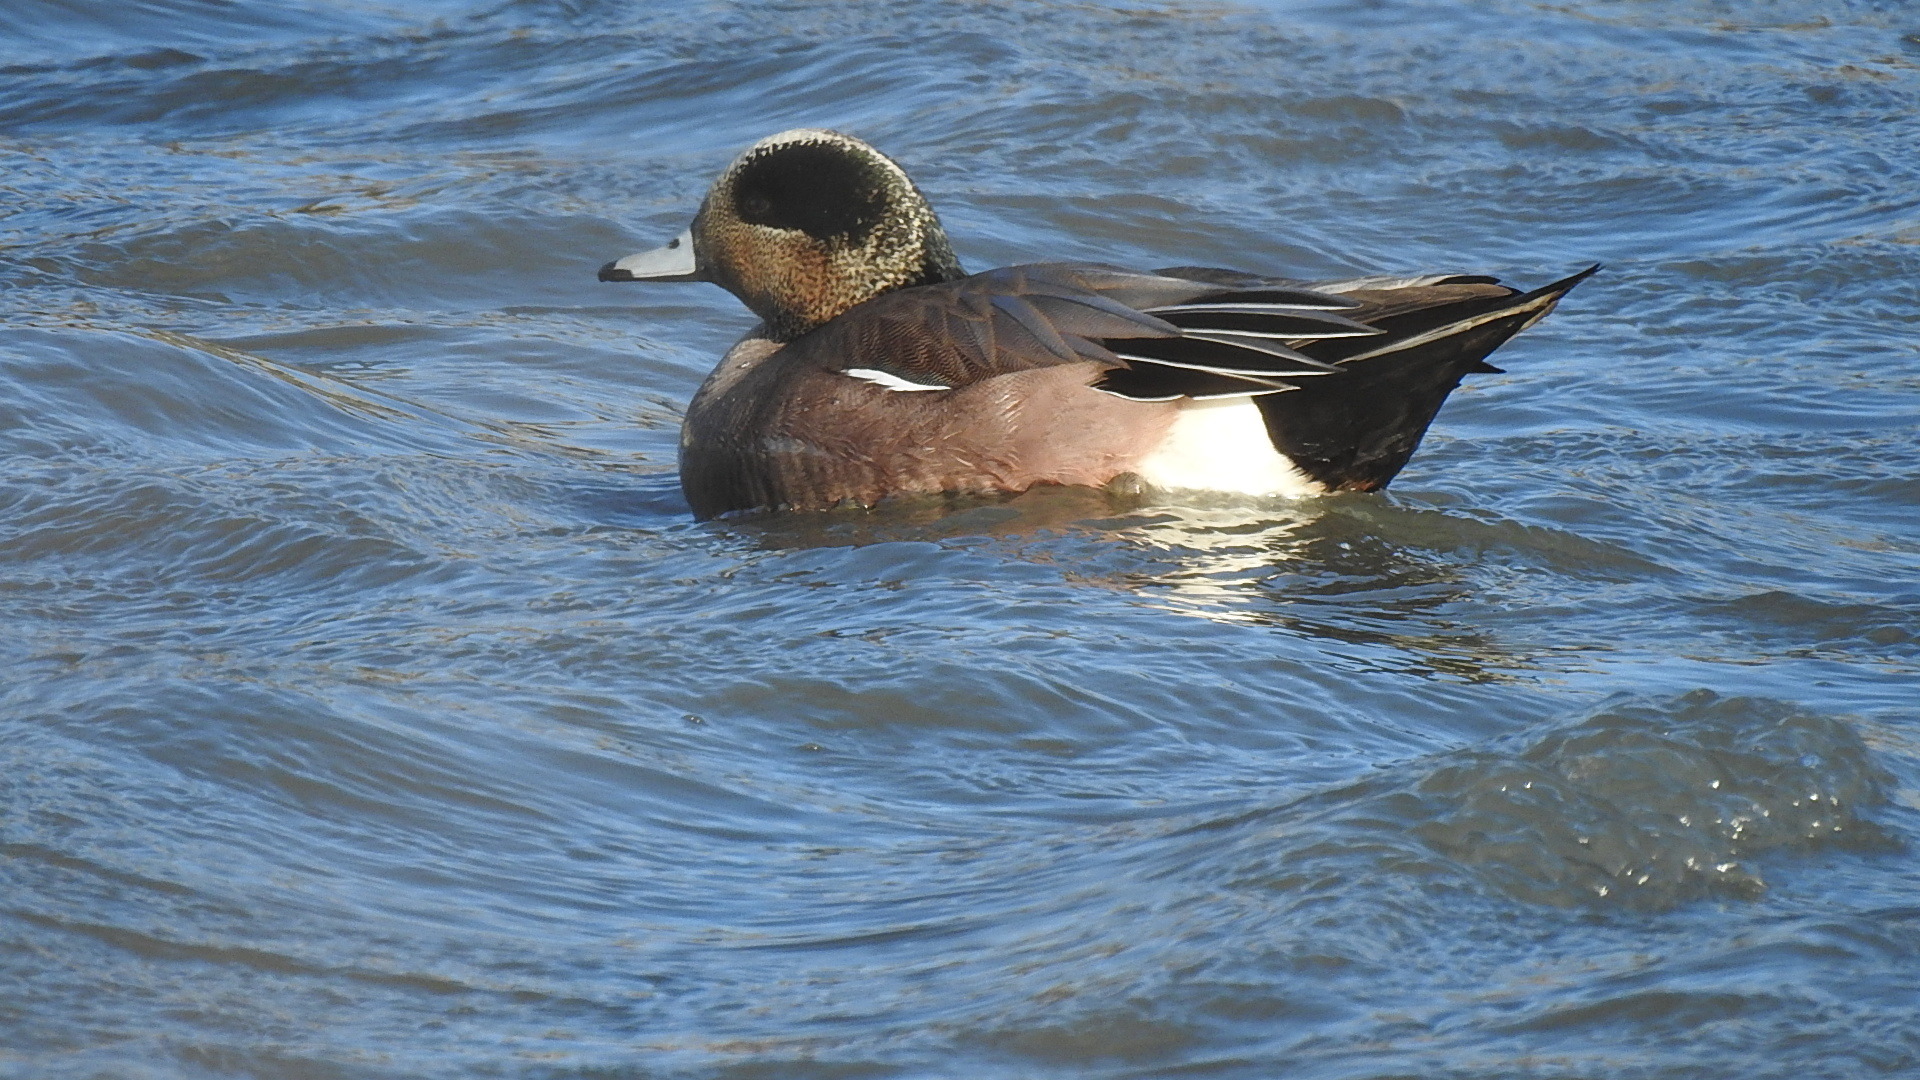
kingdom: Animalia
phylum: Chordata
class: Aves
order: Anseriformes
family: Anatidae
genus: Mareca
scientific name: Mareca americana
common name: American wigeon
